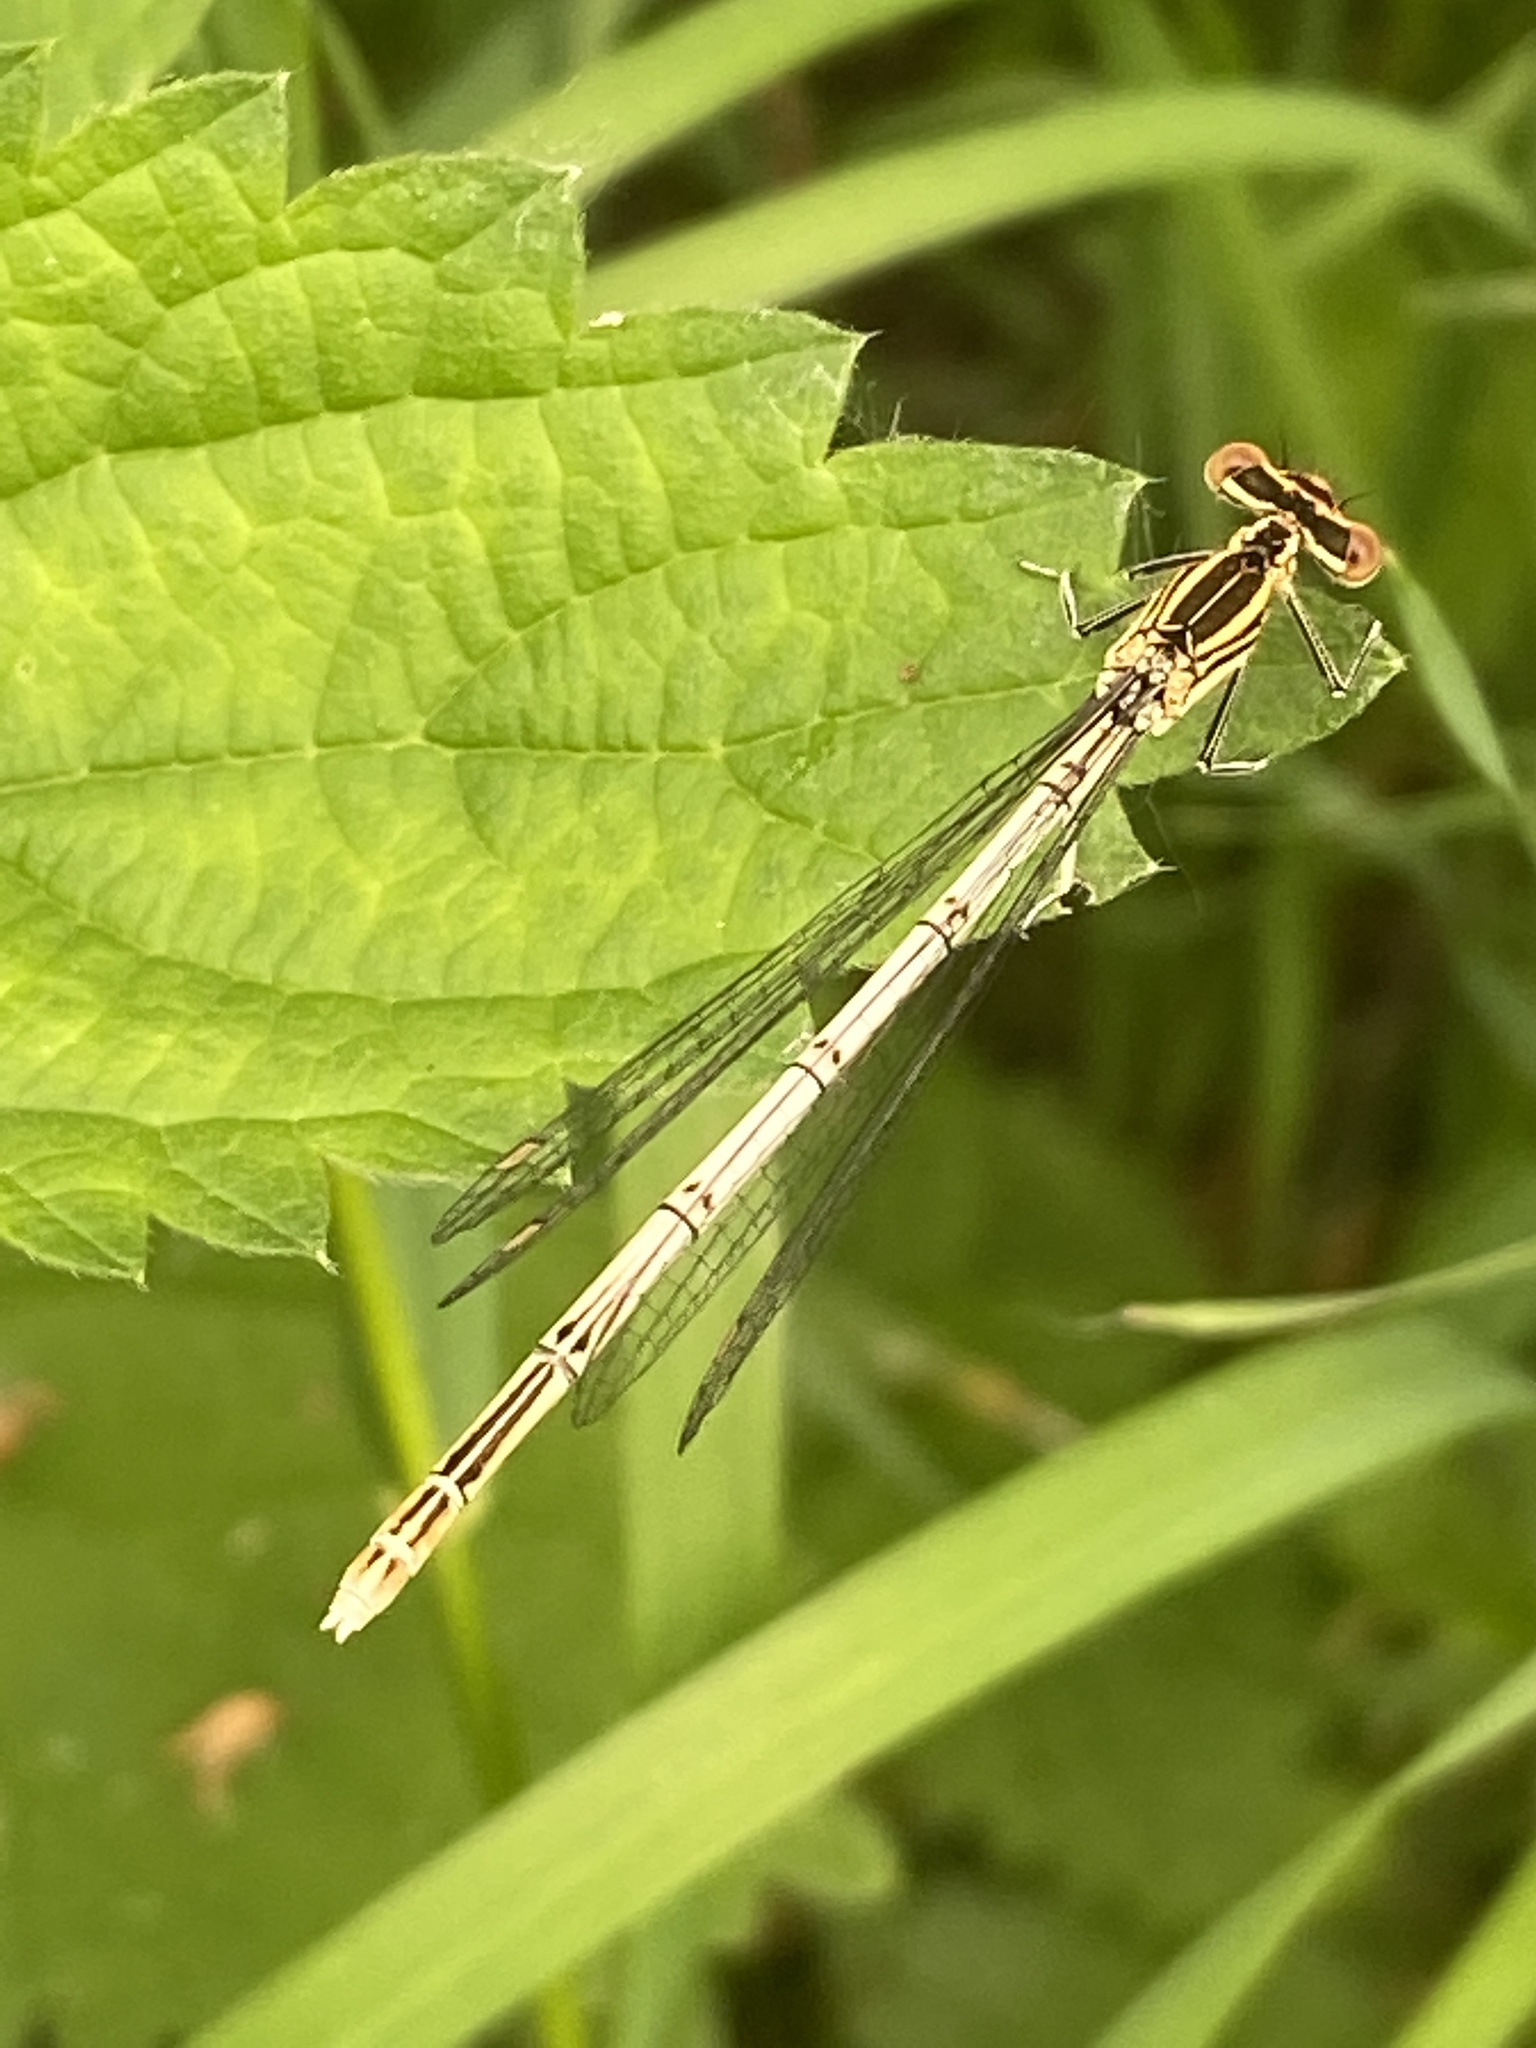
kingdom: Animalia
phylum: Arthropoda
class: Insecta
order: Odonata
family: Platycnemididae
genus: Platycnemis
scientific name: Platycnemis pennipes
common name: White-legged damselfly
